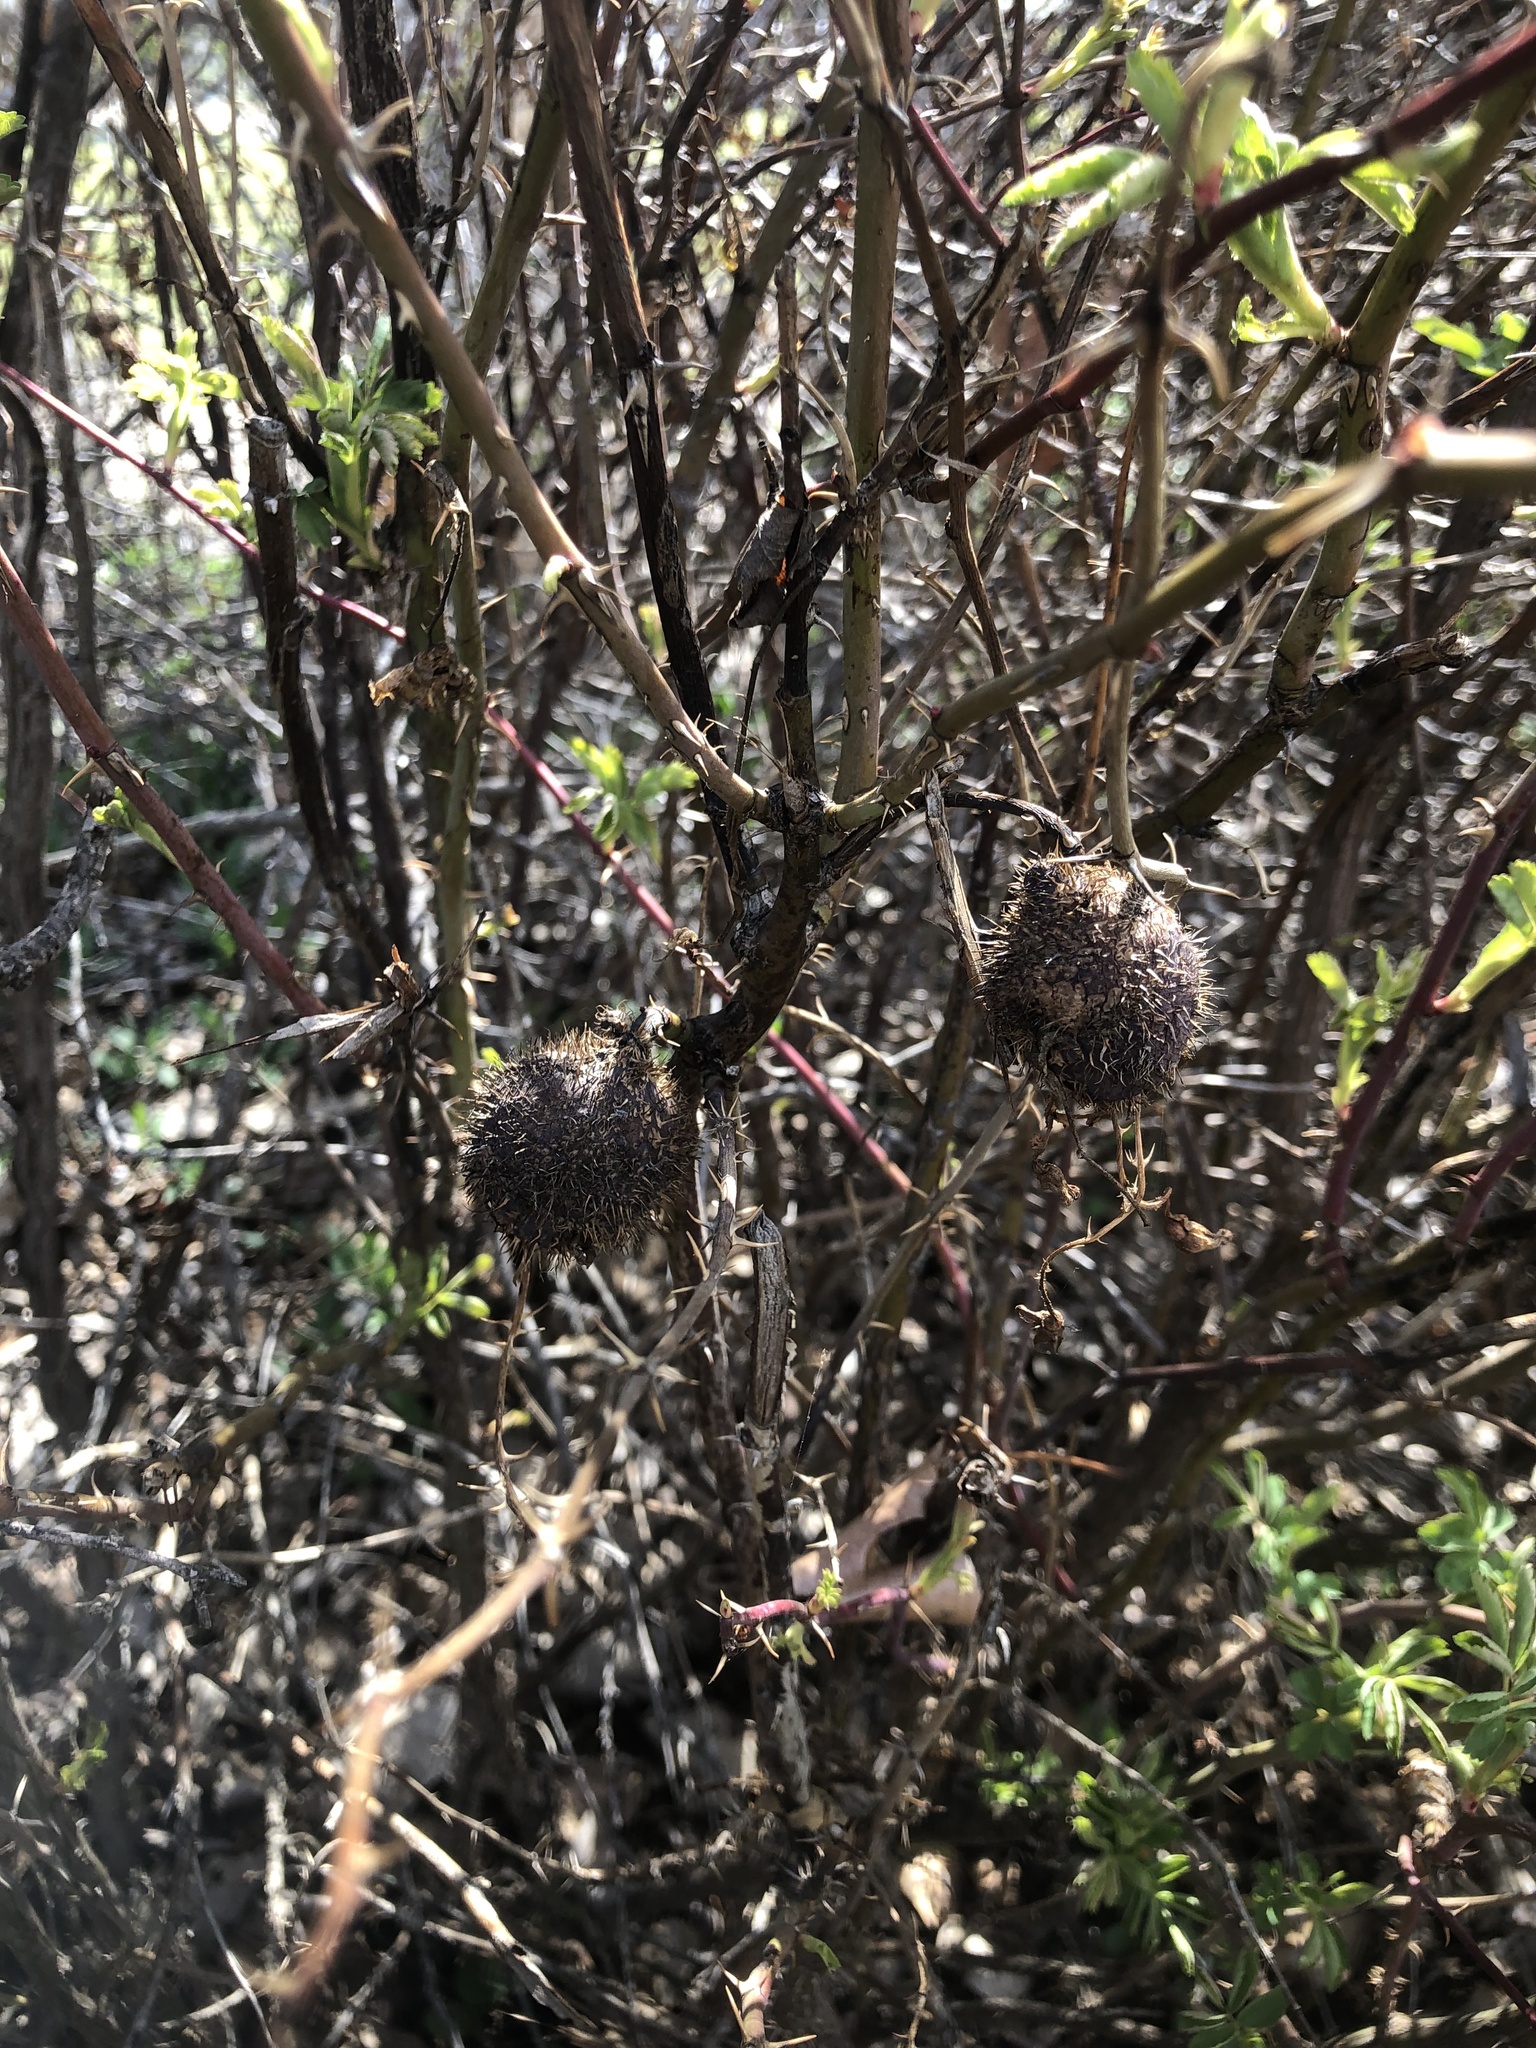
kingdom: Animalia
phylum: Arthropoda
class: Insecta
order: Hymenoptera
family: Cynipidae
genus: Diplolepis
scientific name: Diplolepis spinosa
